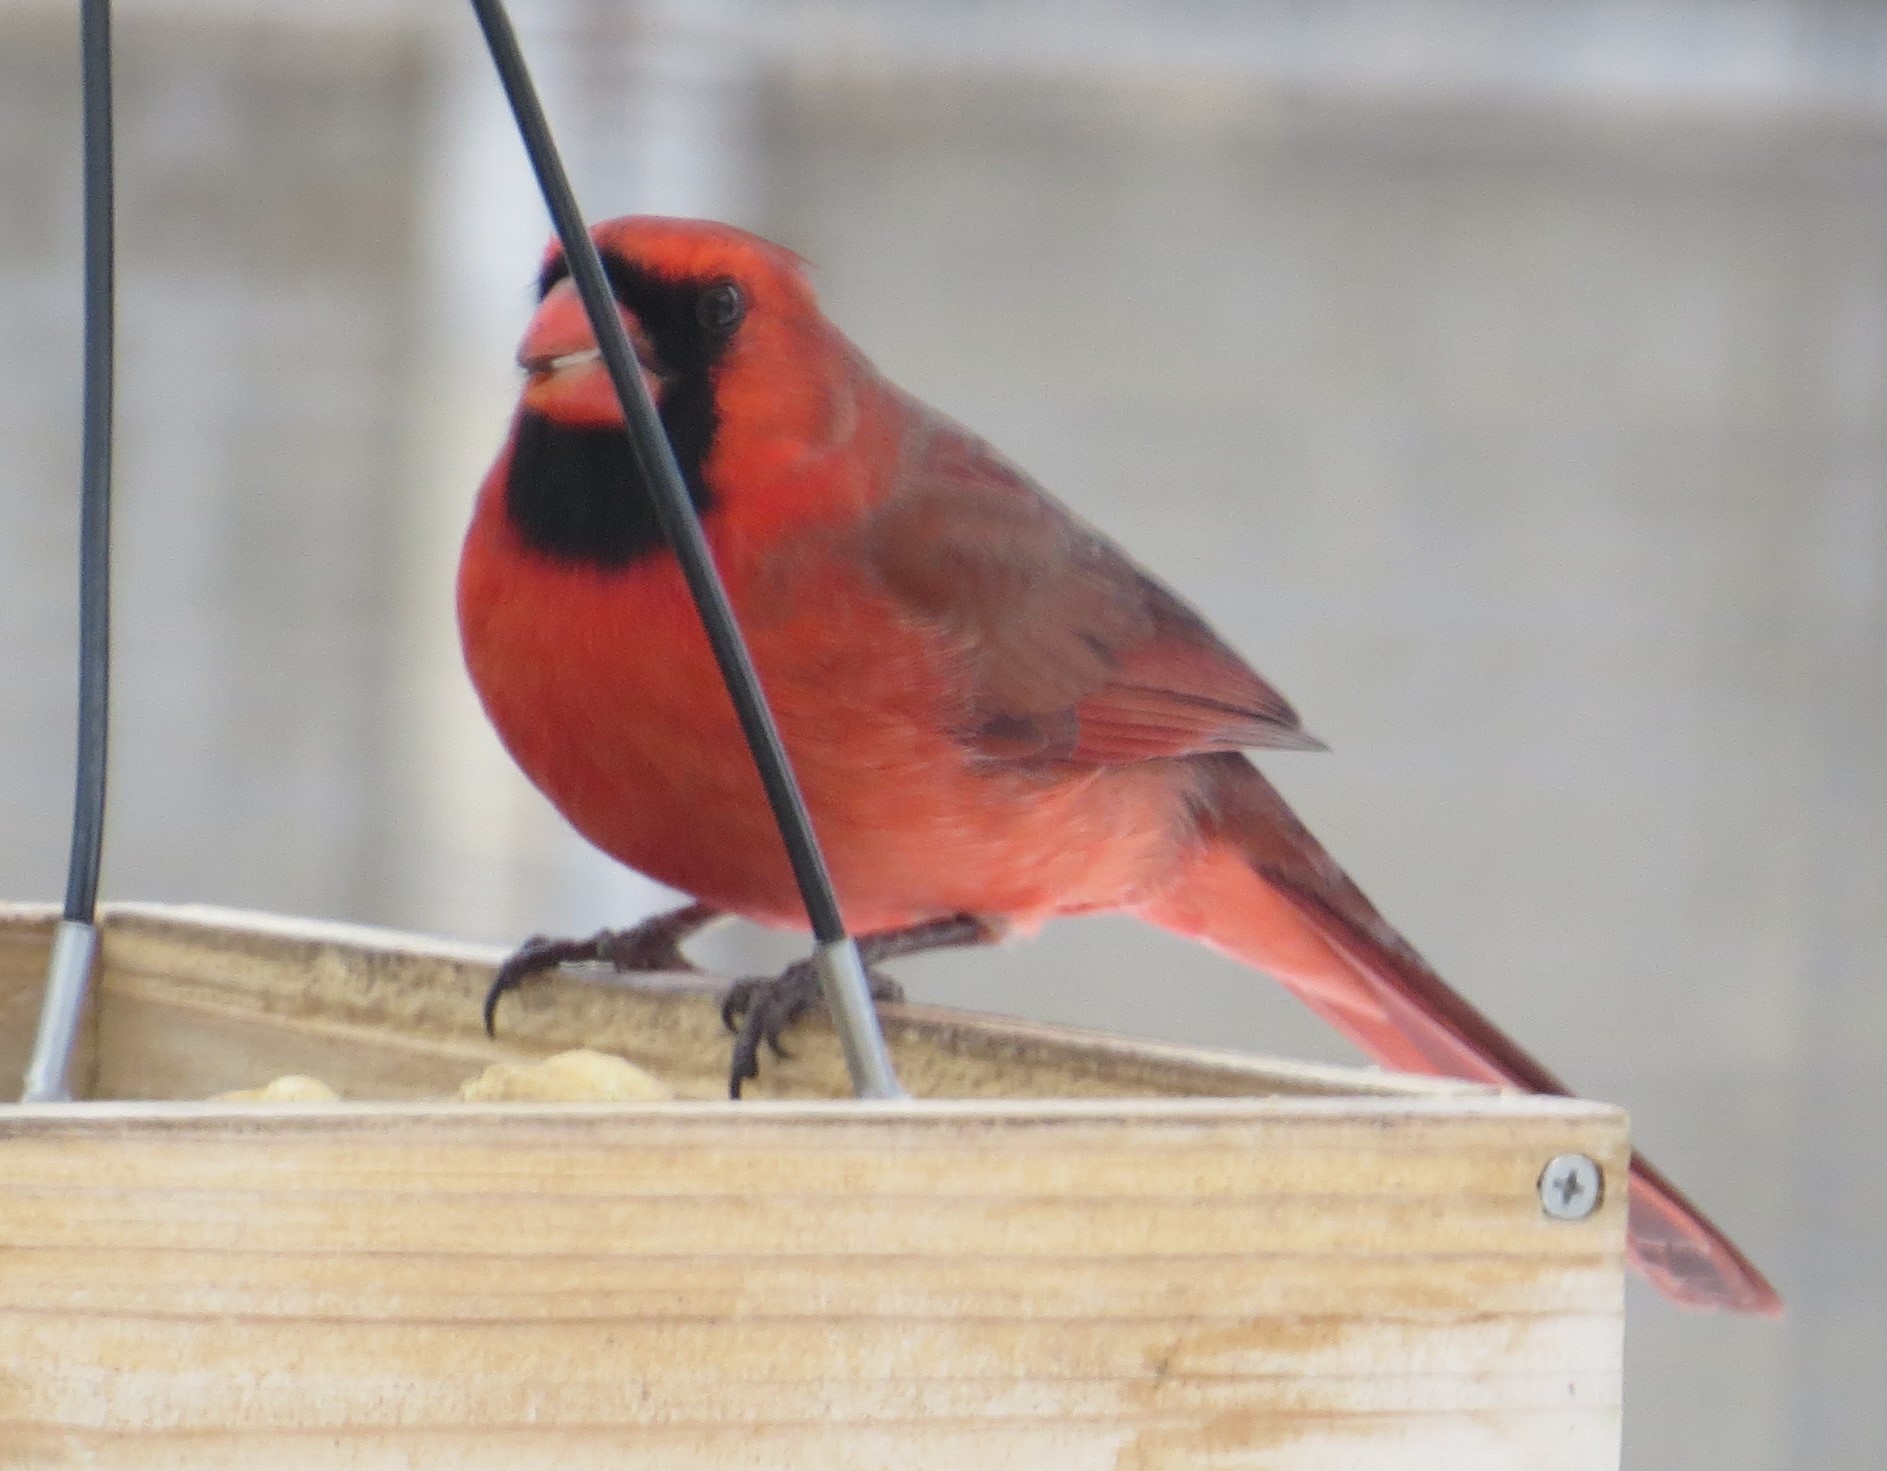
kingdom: Animalia
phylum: Chordata
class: Aves
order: Passeriformes
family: Cardinalidae
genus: Cardinalis
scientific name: Cardinalis cardinalis
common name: Northern cardinal
